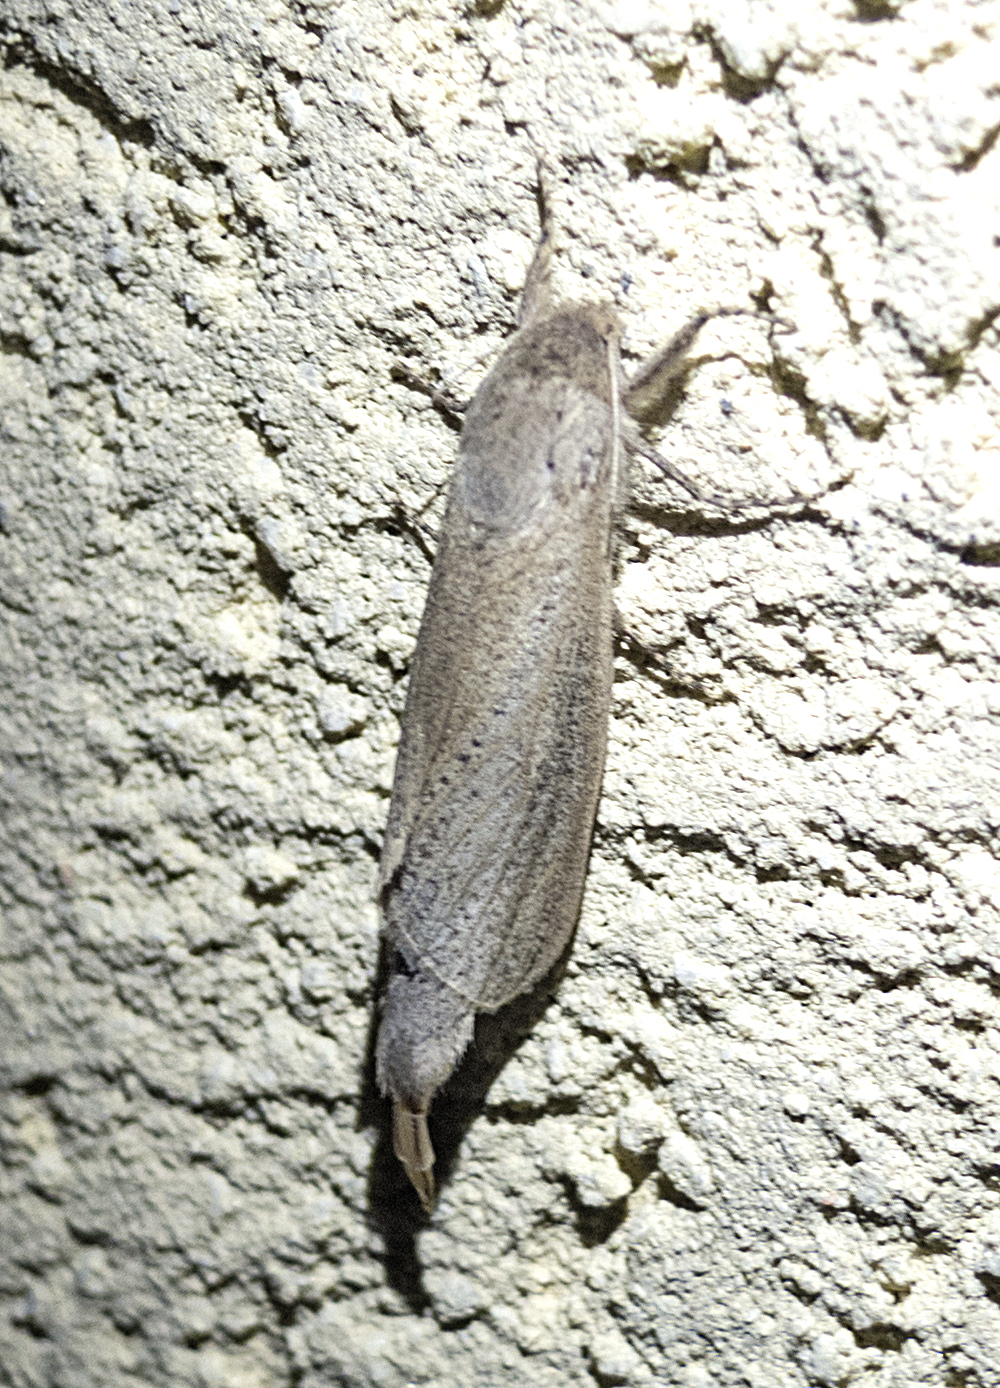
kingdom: Animalia
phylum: Arthropoda
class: Insecta
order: Lepidoptera
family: Cossidae
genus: Phragmataecia
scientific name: Phragmataecia castaneae
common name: Reed leopard
